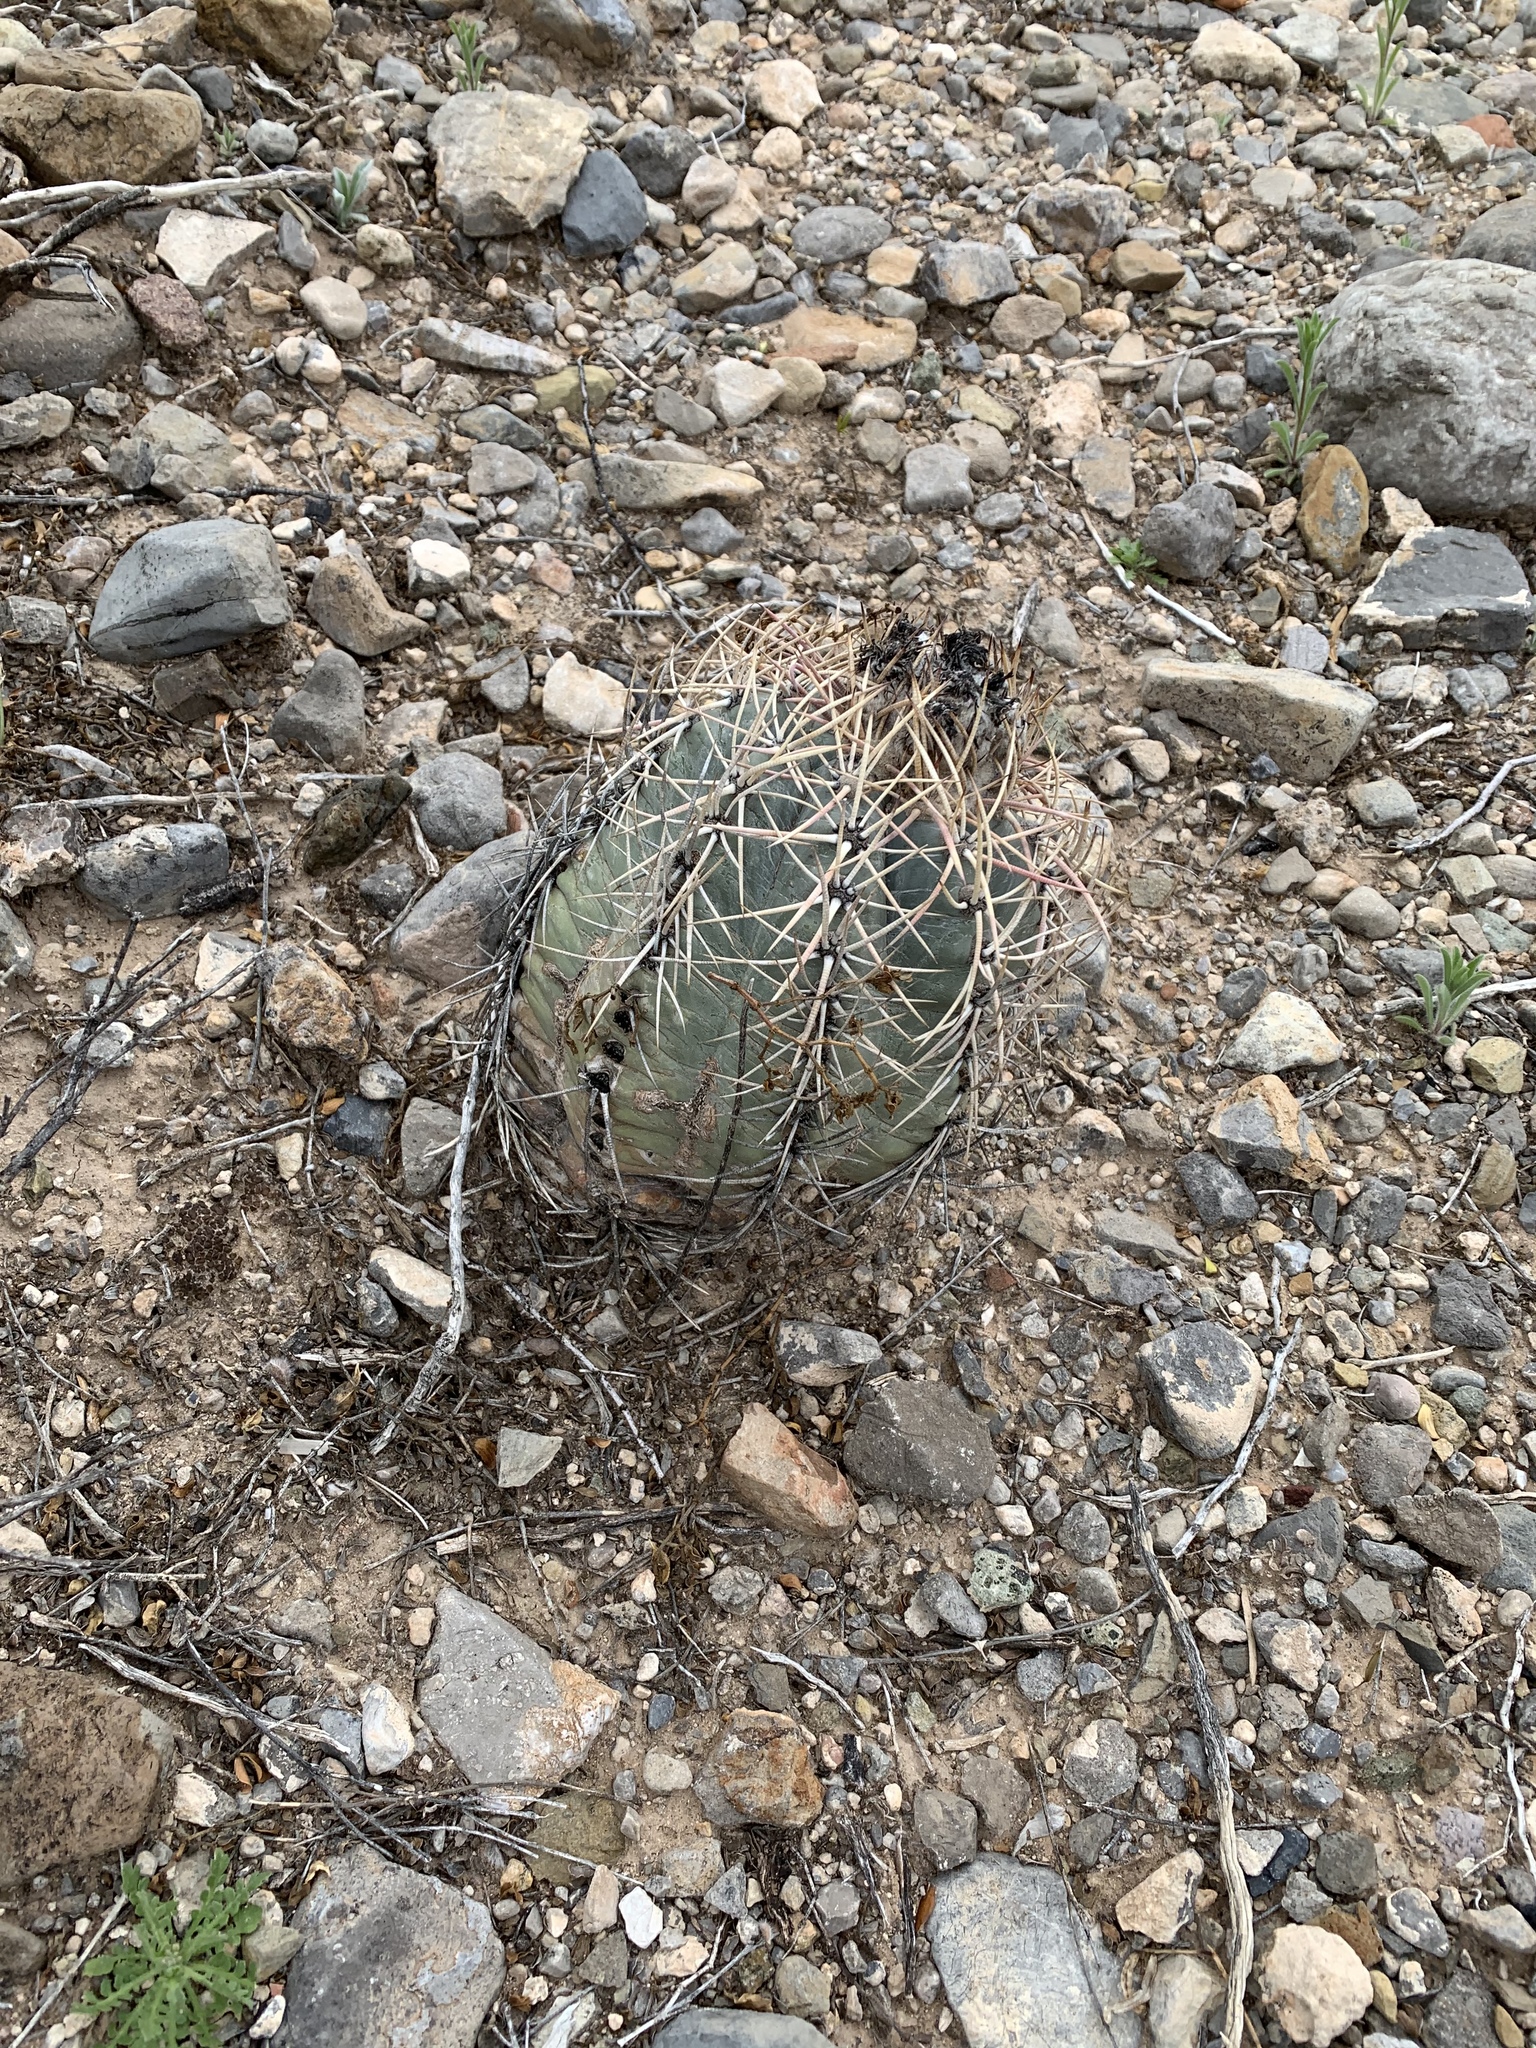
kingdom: Plantae
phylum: Tracheophyta
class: Magnoliopsida
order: Caryophyllales
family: Cactaceae
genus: Echinocactus
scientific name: Echinocactus horizonthalonius
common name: Devilshead
